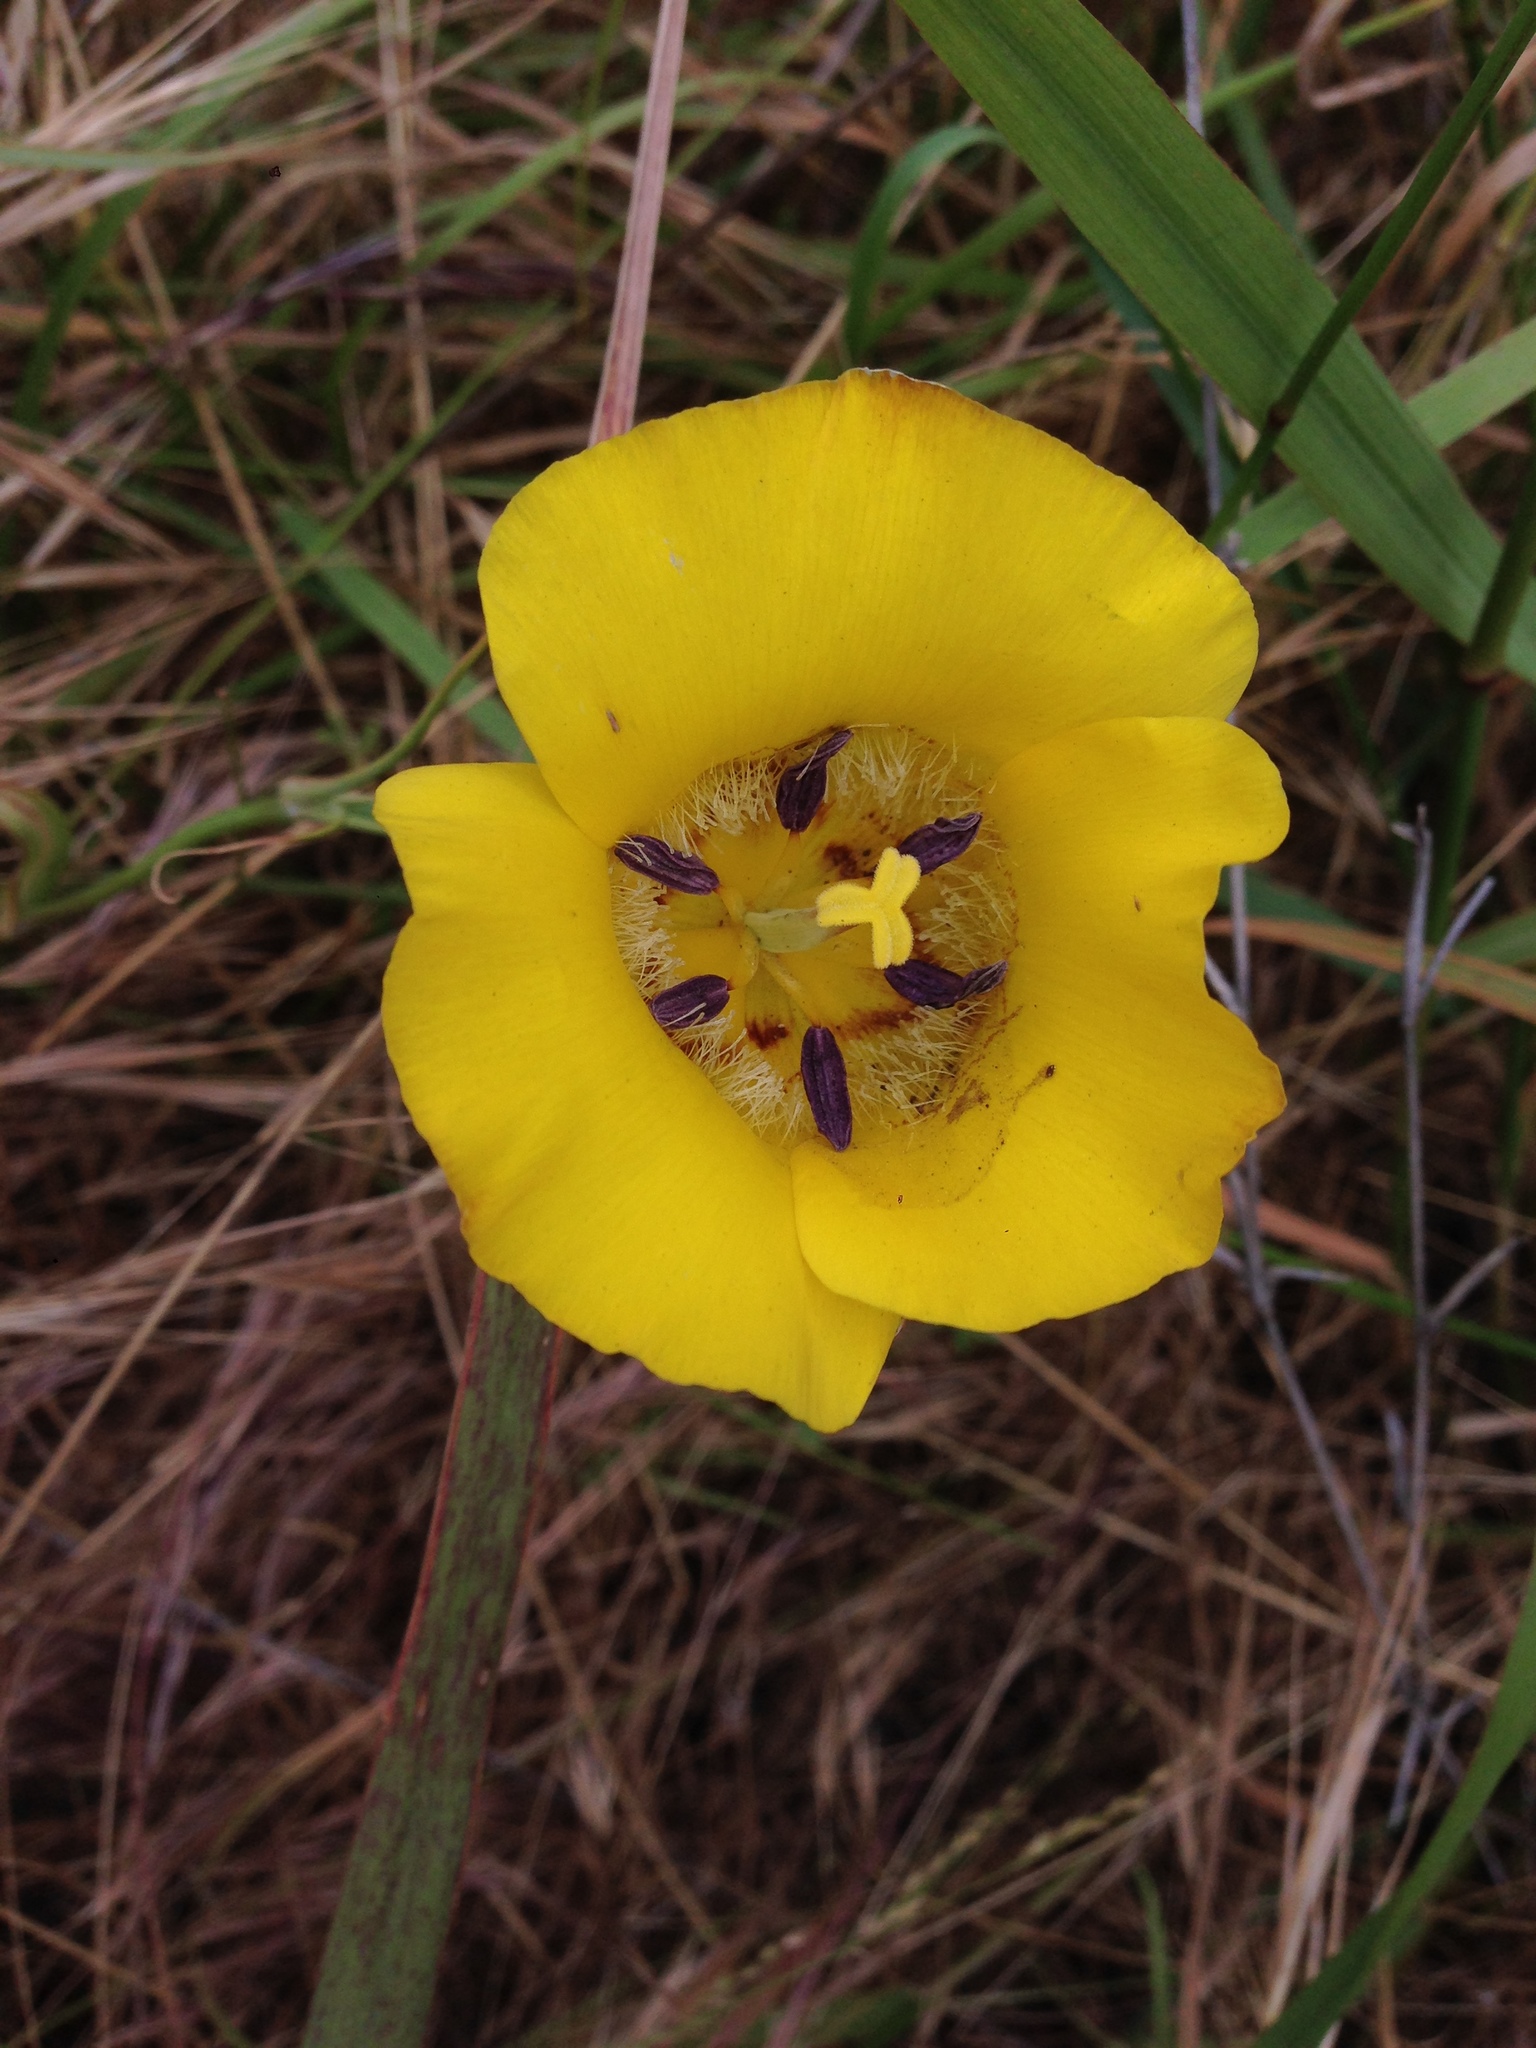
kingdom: Plantae
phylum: Tracheophyta
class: Liliopsida
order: Liliales
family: Liliaceae
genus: Calochortus
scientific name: Calochortus clavatus
